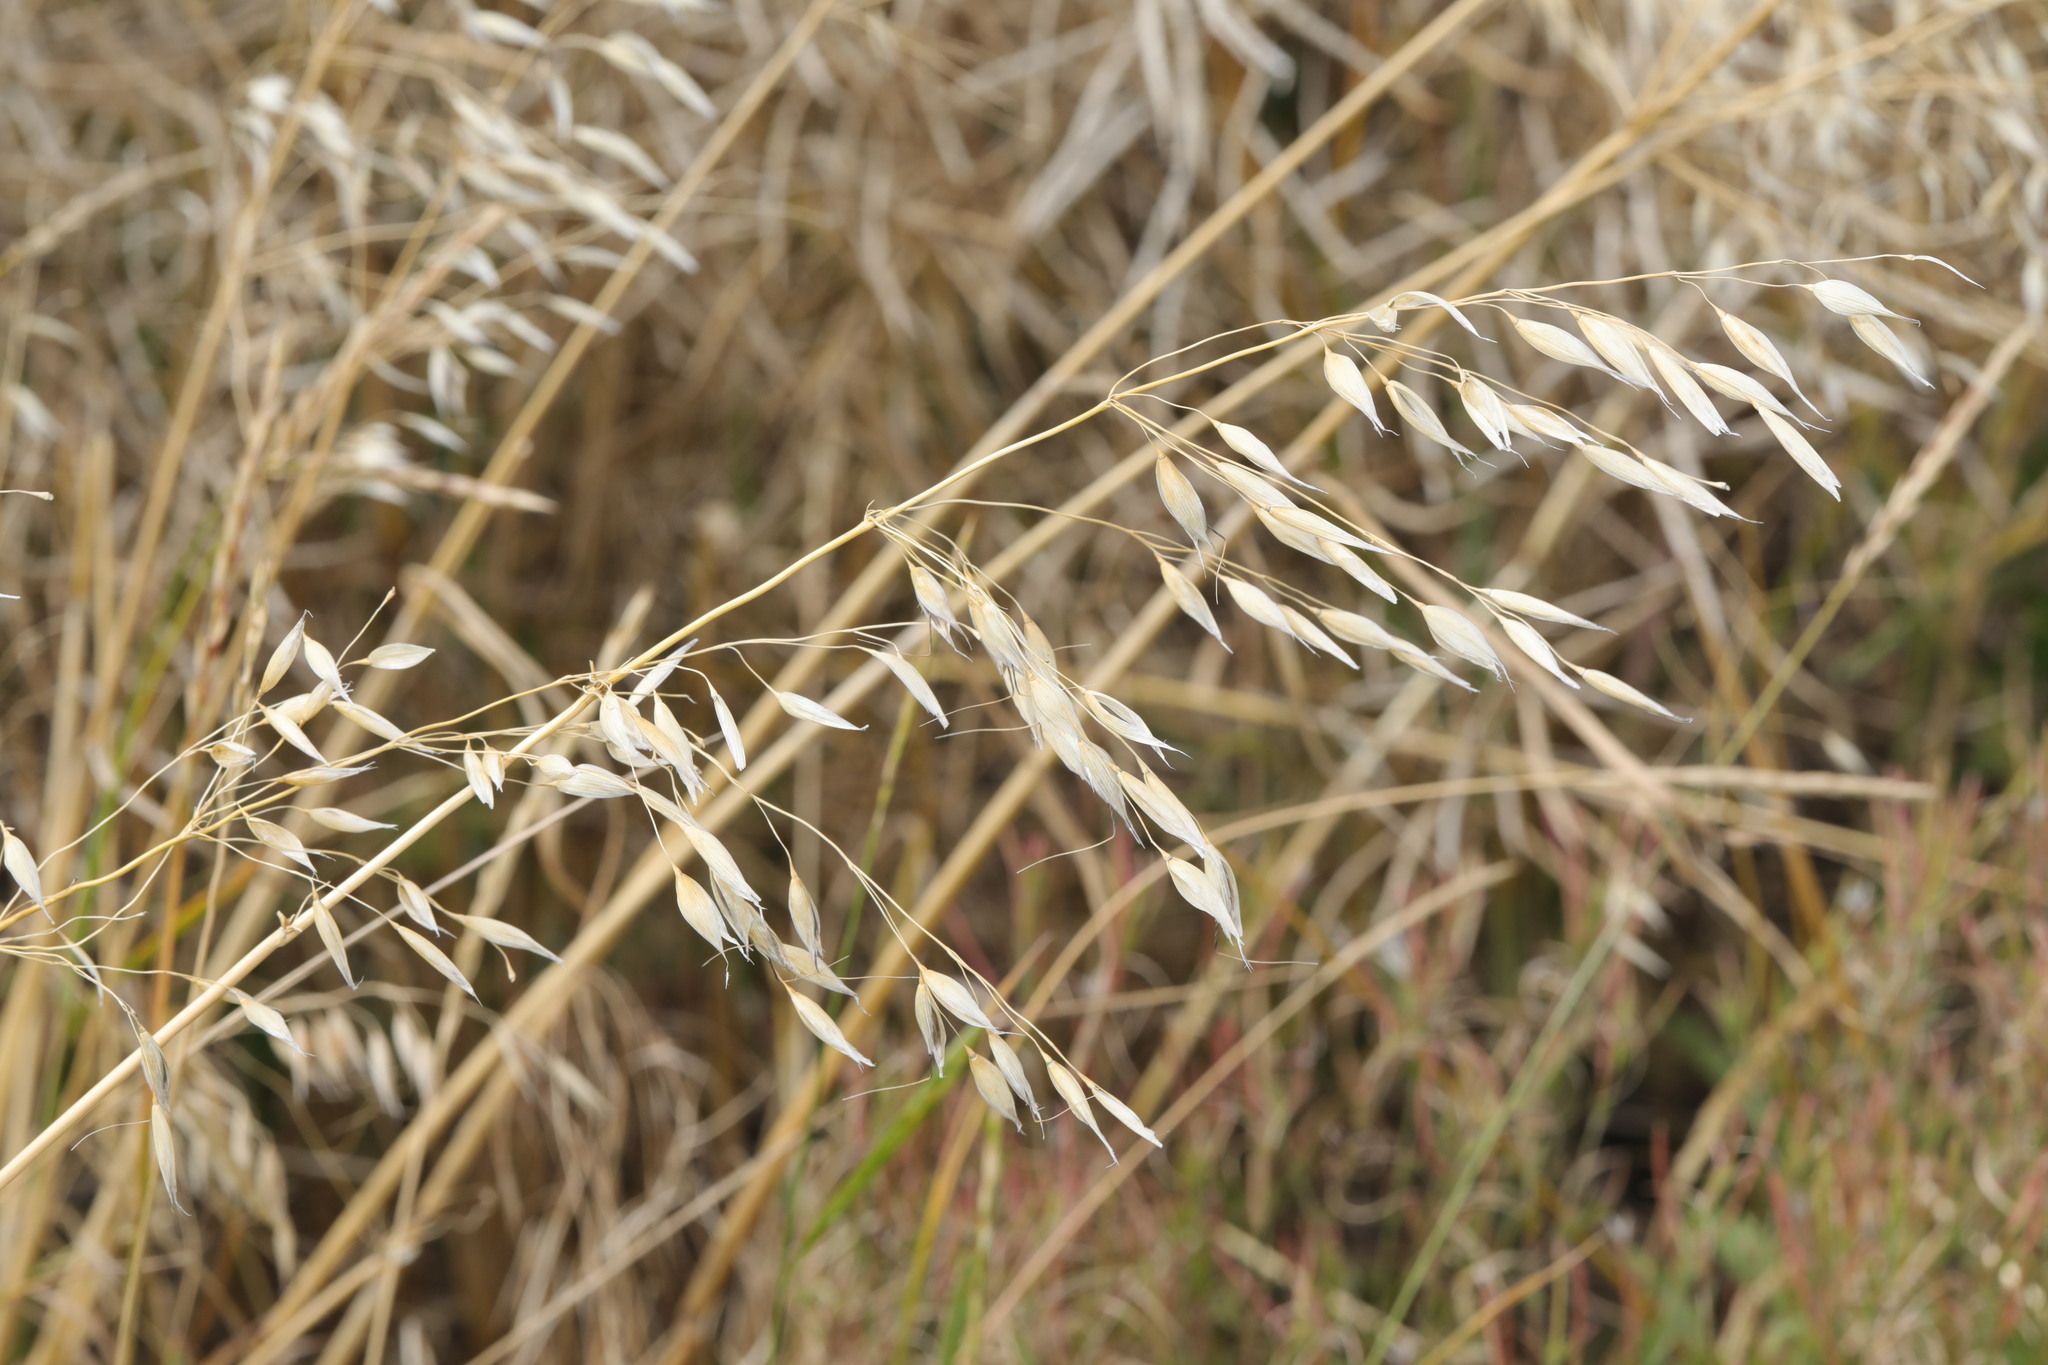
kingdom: Plantae
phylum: Tracheophyta
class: Liliopsida
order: Poales
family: Poaceae
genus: Avena
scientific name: Avena fatua
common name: Wild oat
